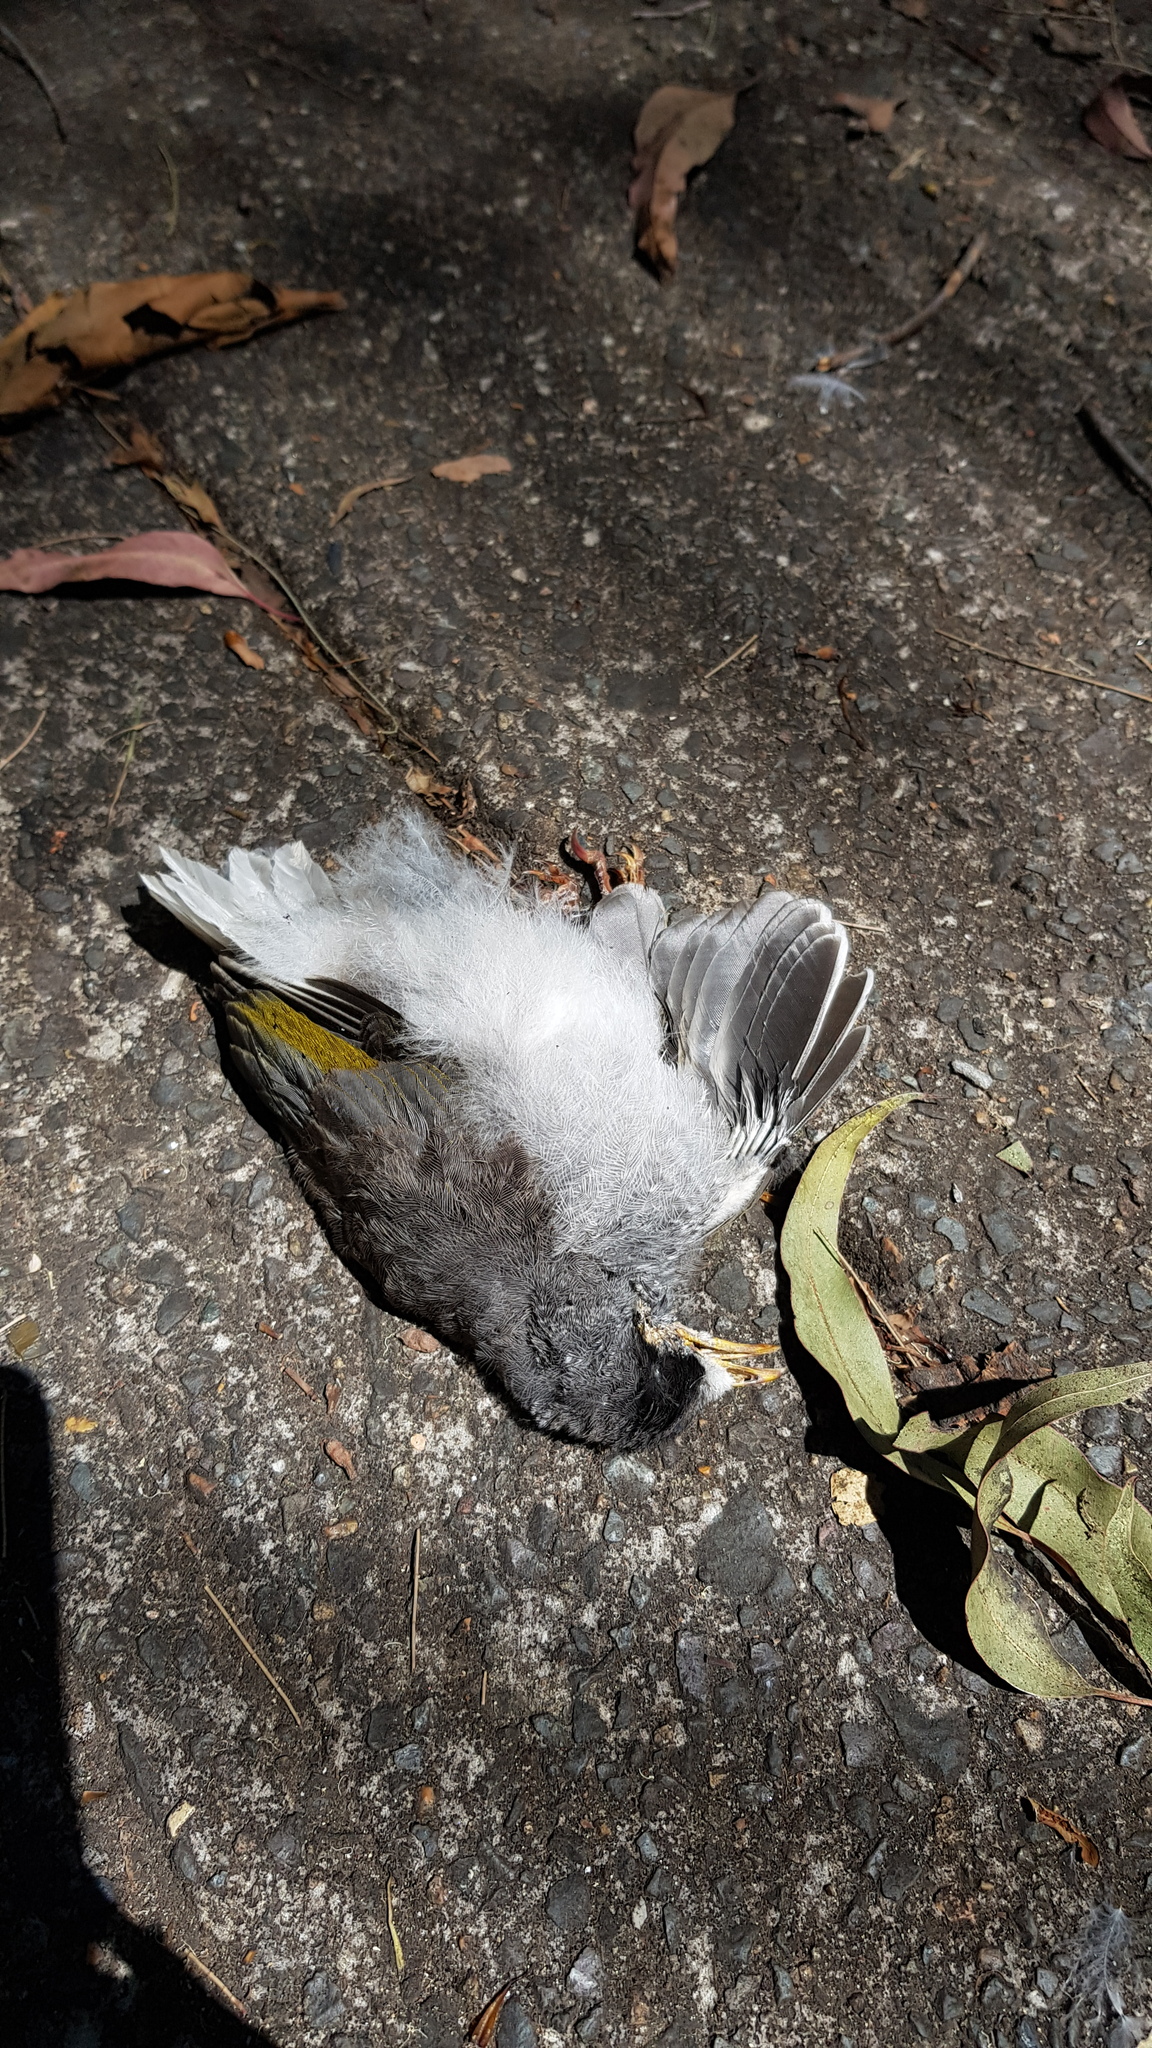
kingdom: Animalia
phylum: Chordata
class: Aves
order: Passeriformes
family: Meliphagidae
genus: Manorina
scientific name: Manorina melanocephala
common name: Noisy miner
